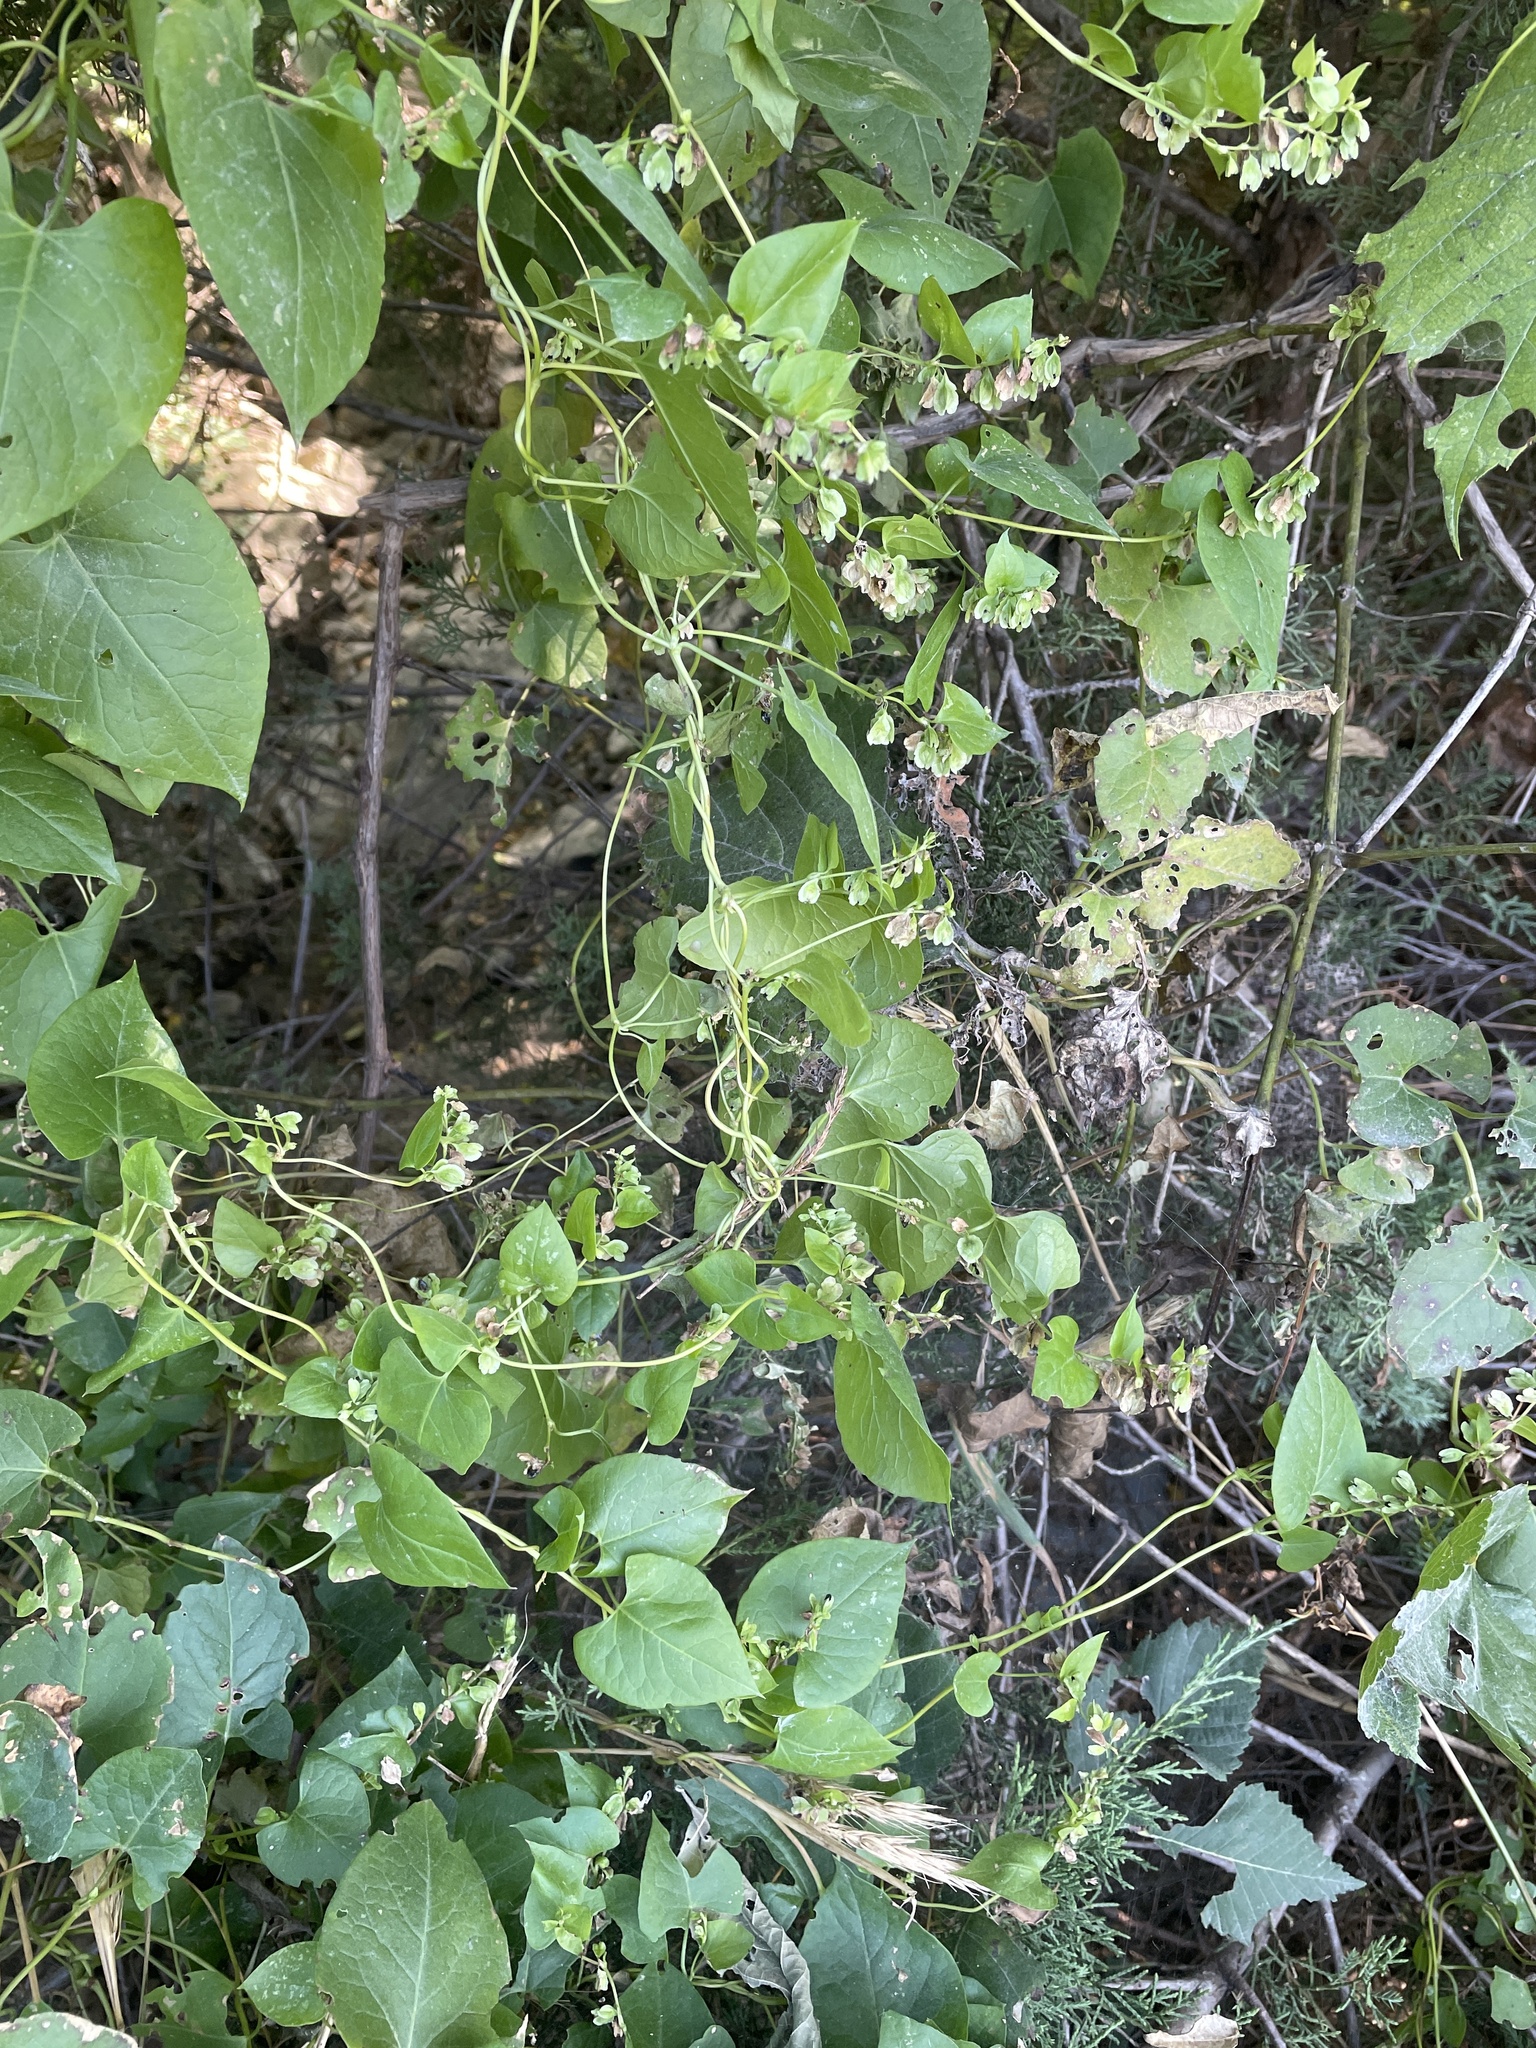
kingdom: Plantae
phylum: Tracheophyta
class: Magnoliopsida
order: Caryophyllales
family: Polygonaceae
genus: Fallopia
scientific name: Fallopia scandens
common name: Climbing false buckwheat
